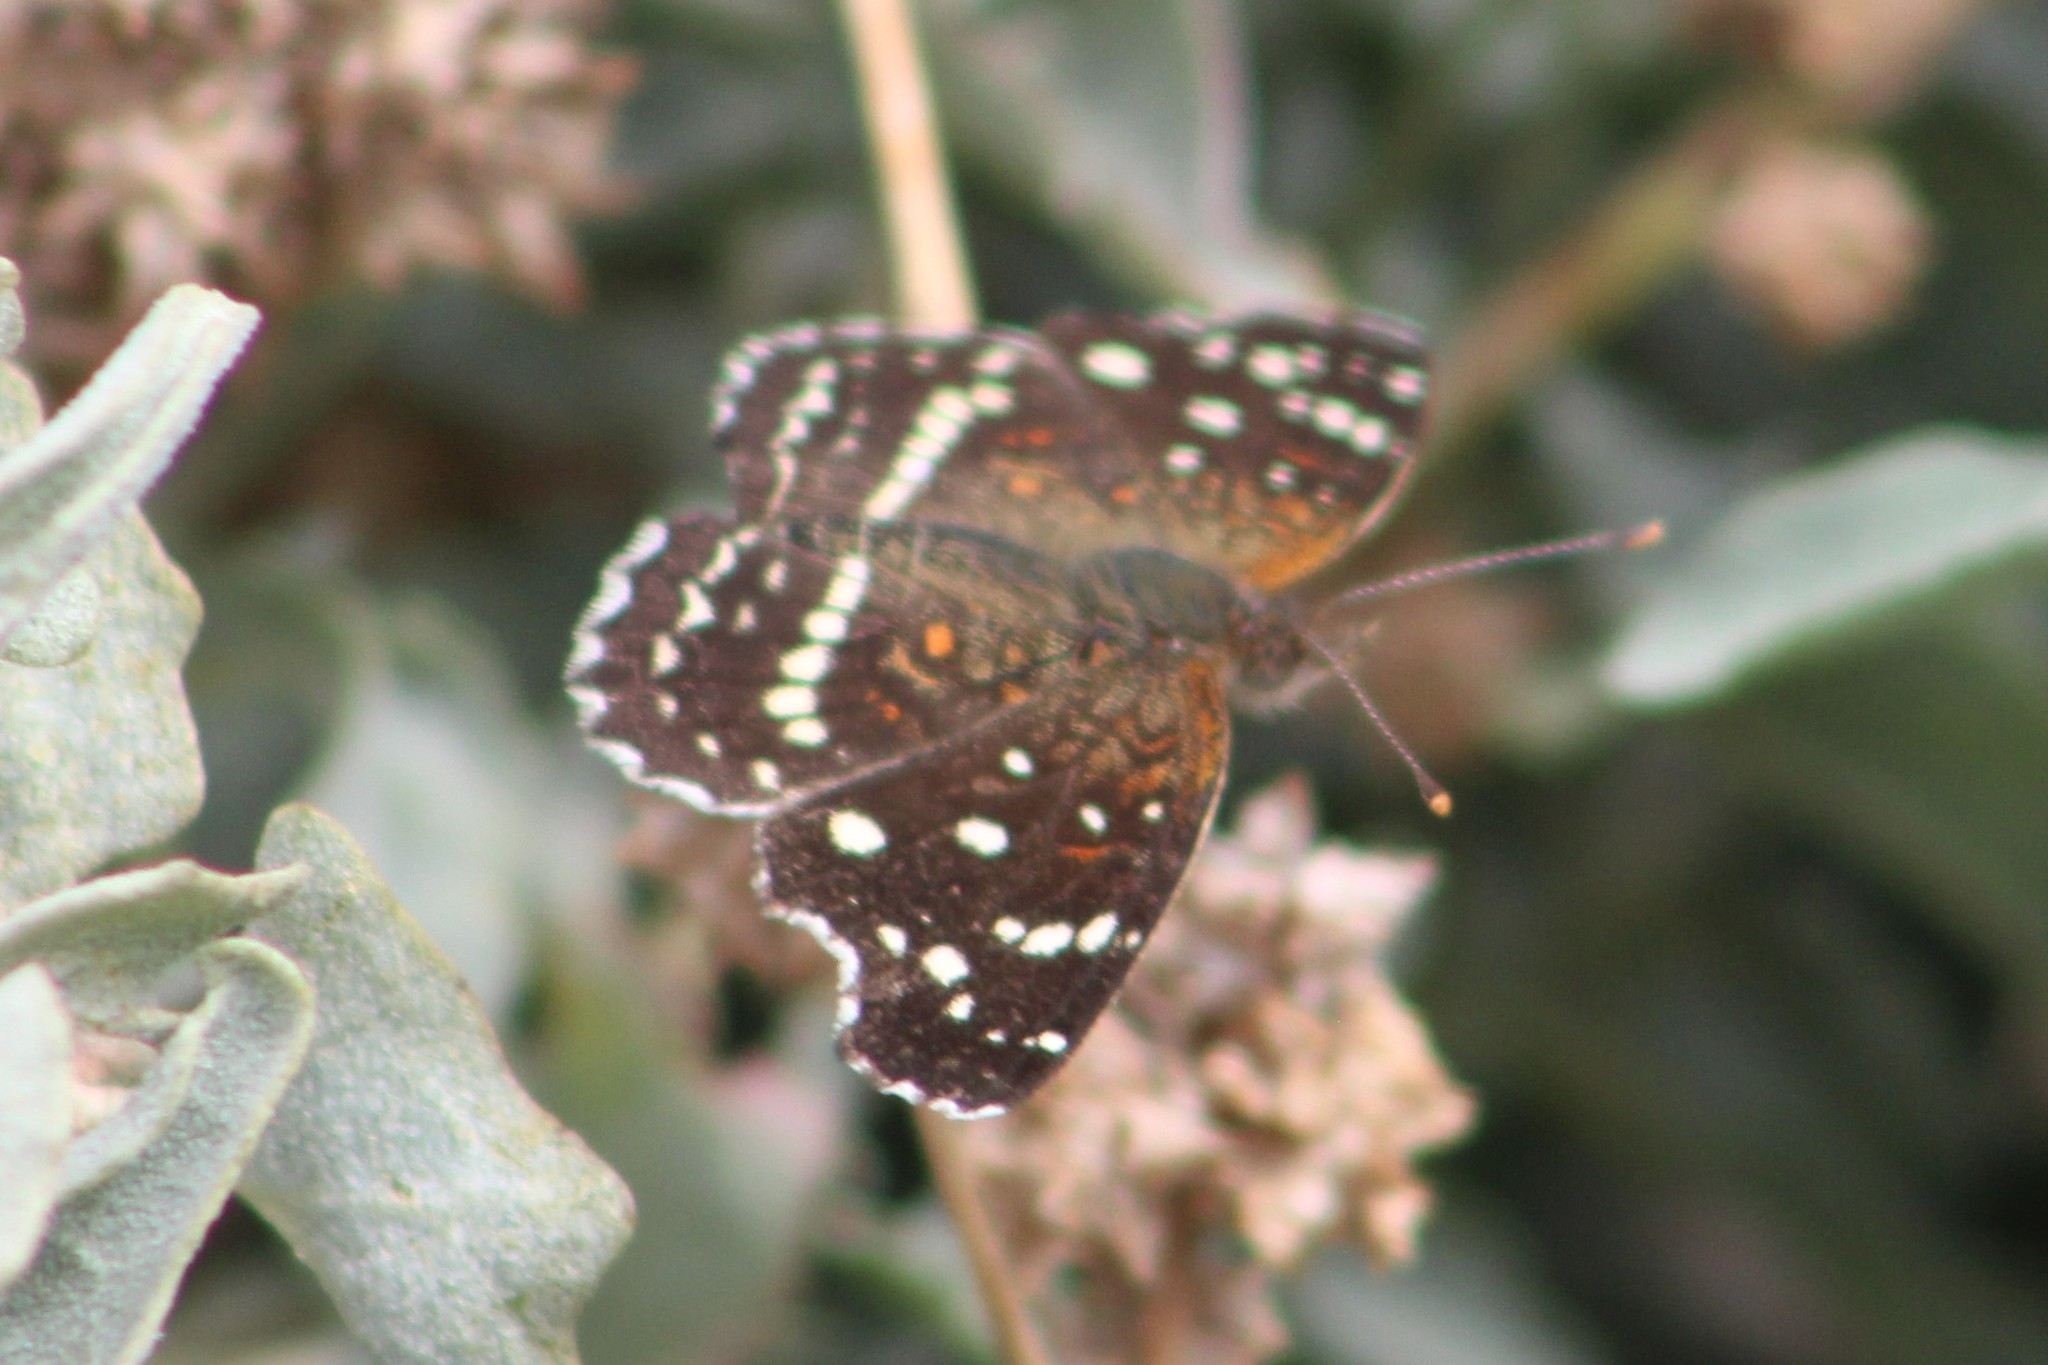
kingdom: Animalia
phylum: Arthropoda
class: Insecta
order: Lepidoptera
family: Nymphalidae
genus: Anthanassa
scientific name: Anthanassa texana
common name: Texan crescent
